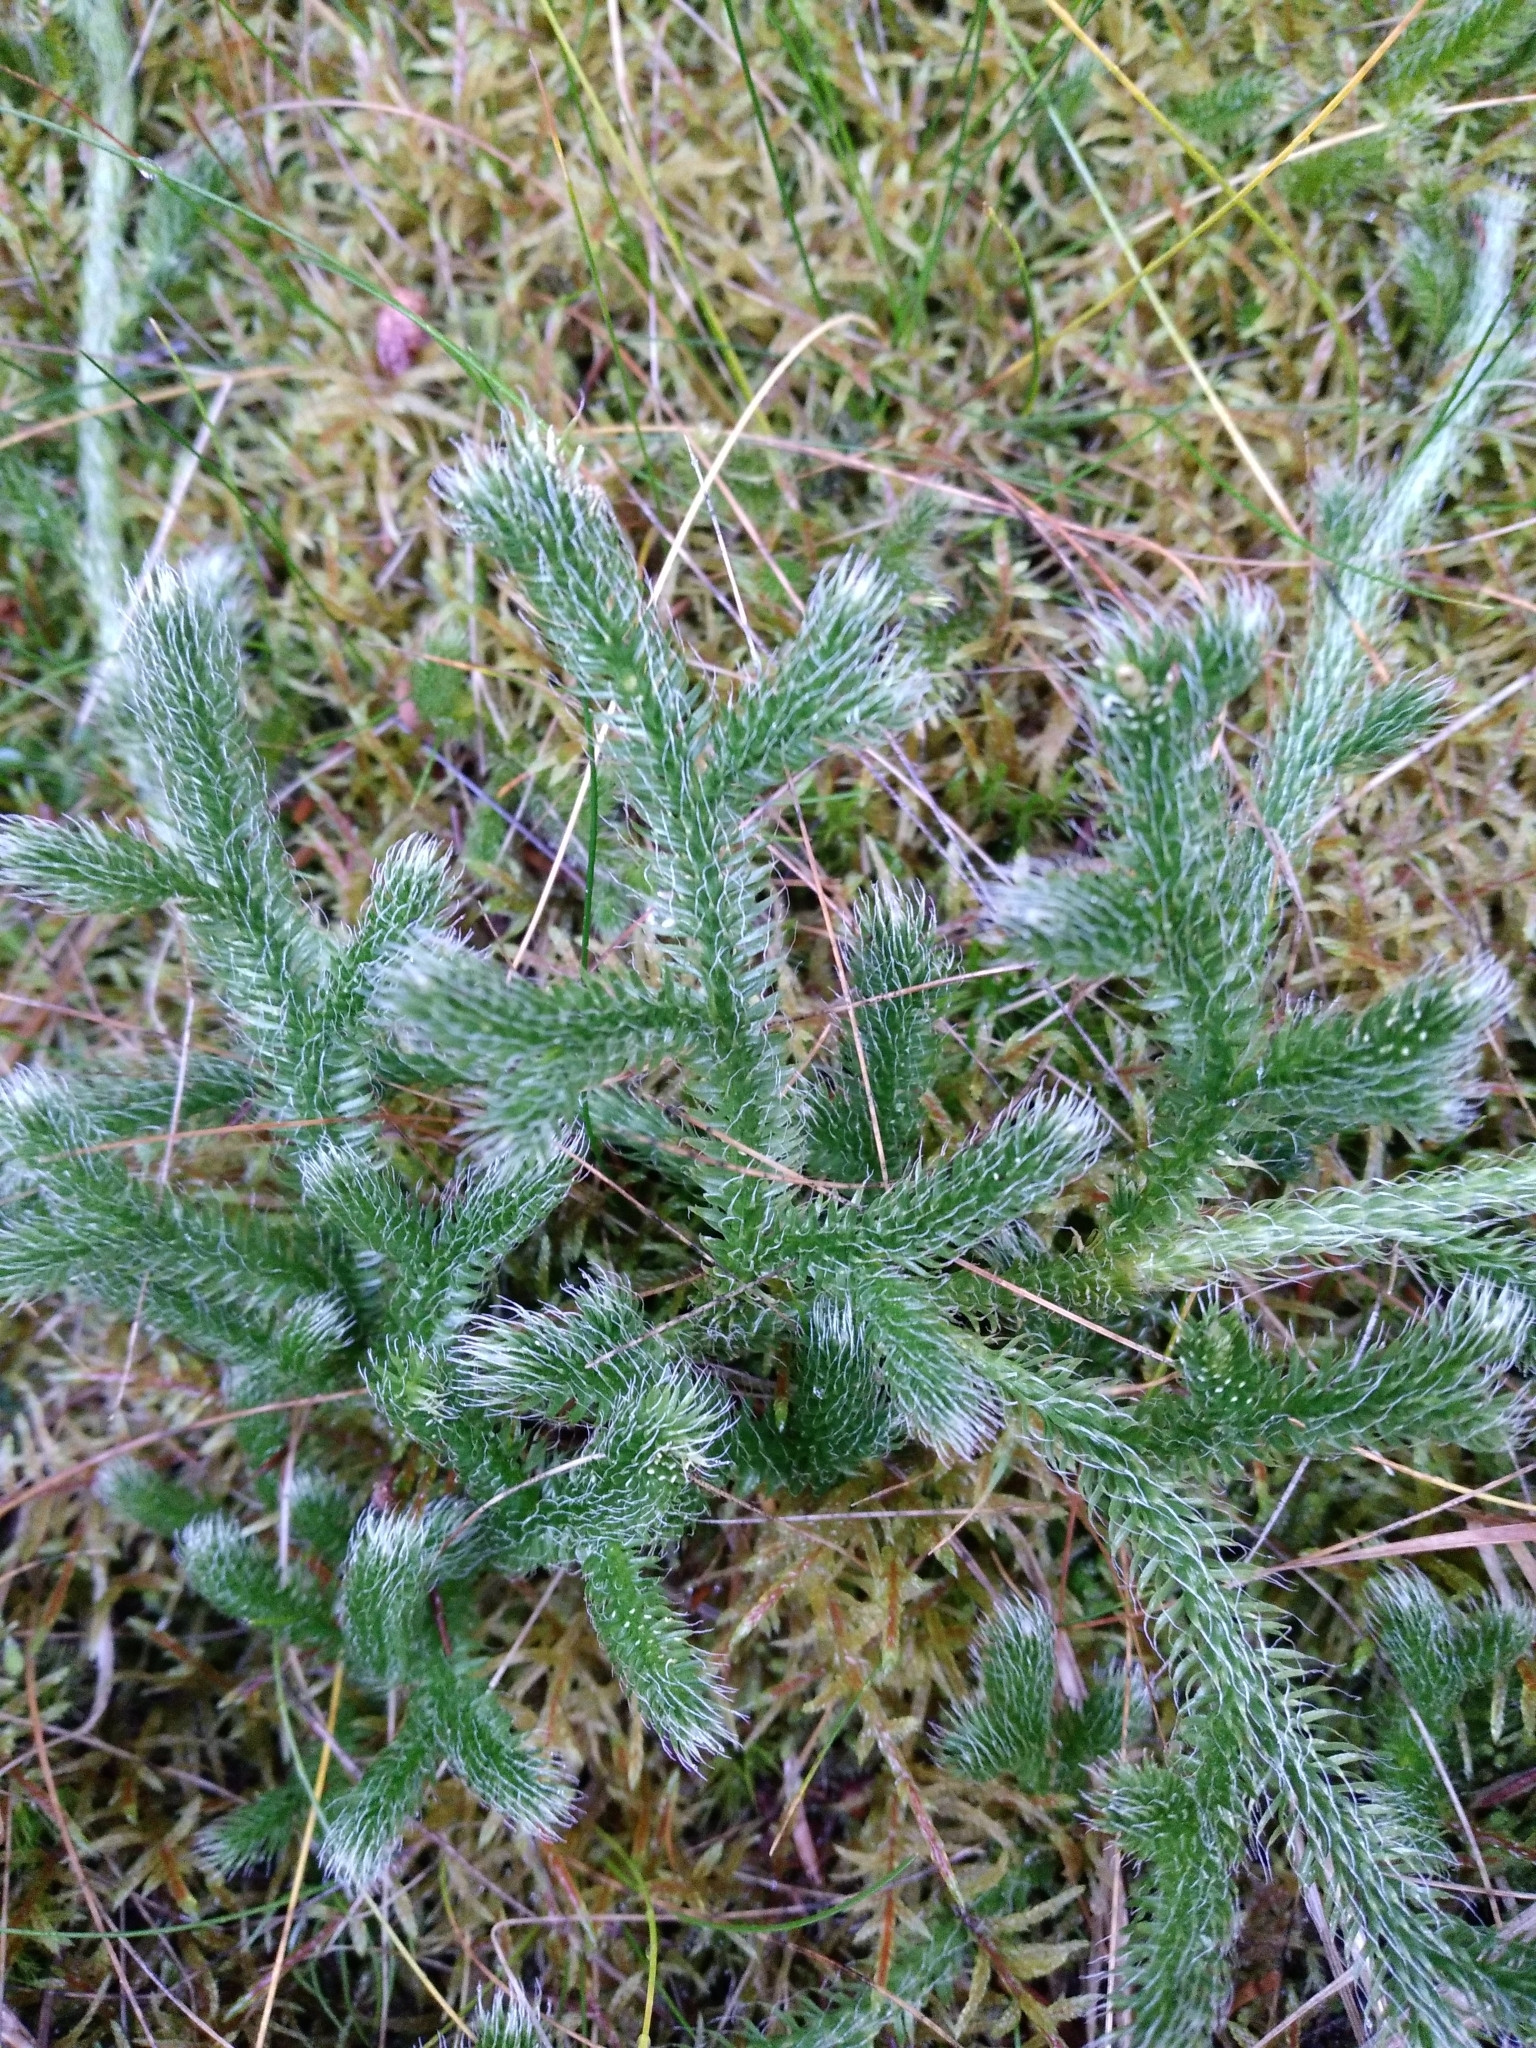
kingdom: Plantae
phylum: Tracheophyta
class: Lycopodiopsida
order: Lycopodiales
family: Lycopodiaceae
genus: Lycopodium
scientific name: Lycopodium clavatum
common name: Stag's-horn clubmoss
